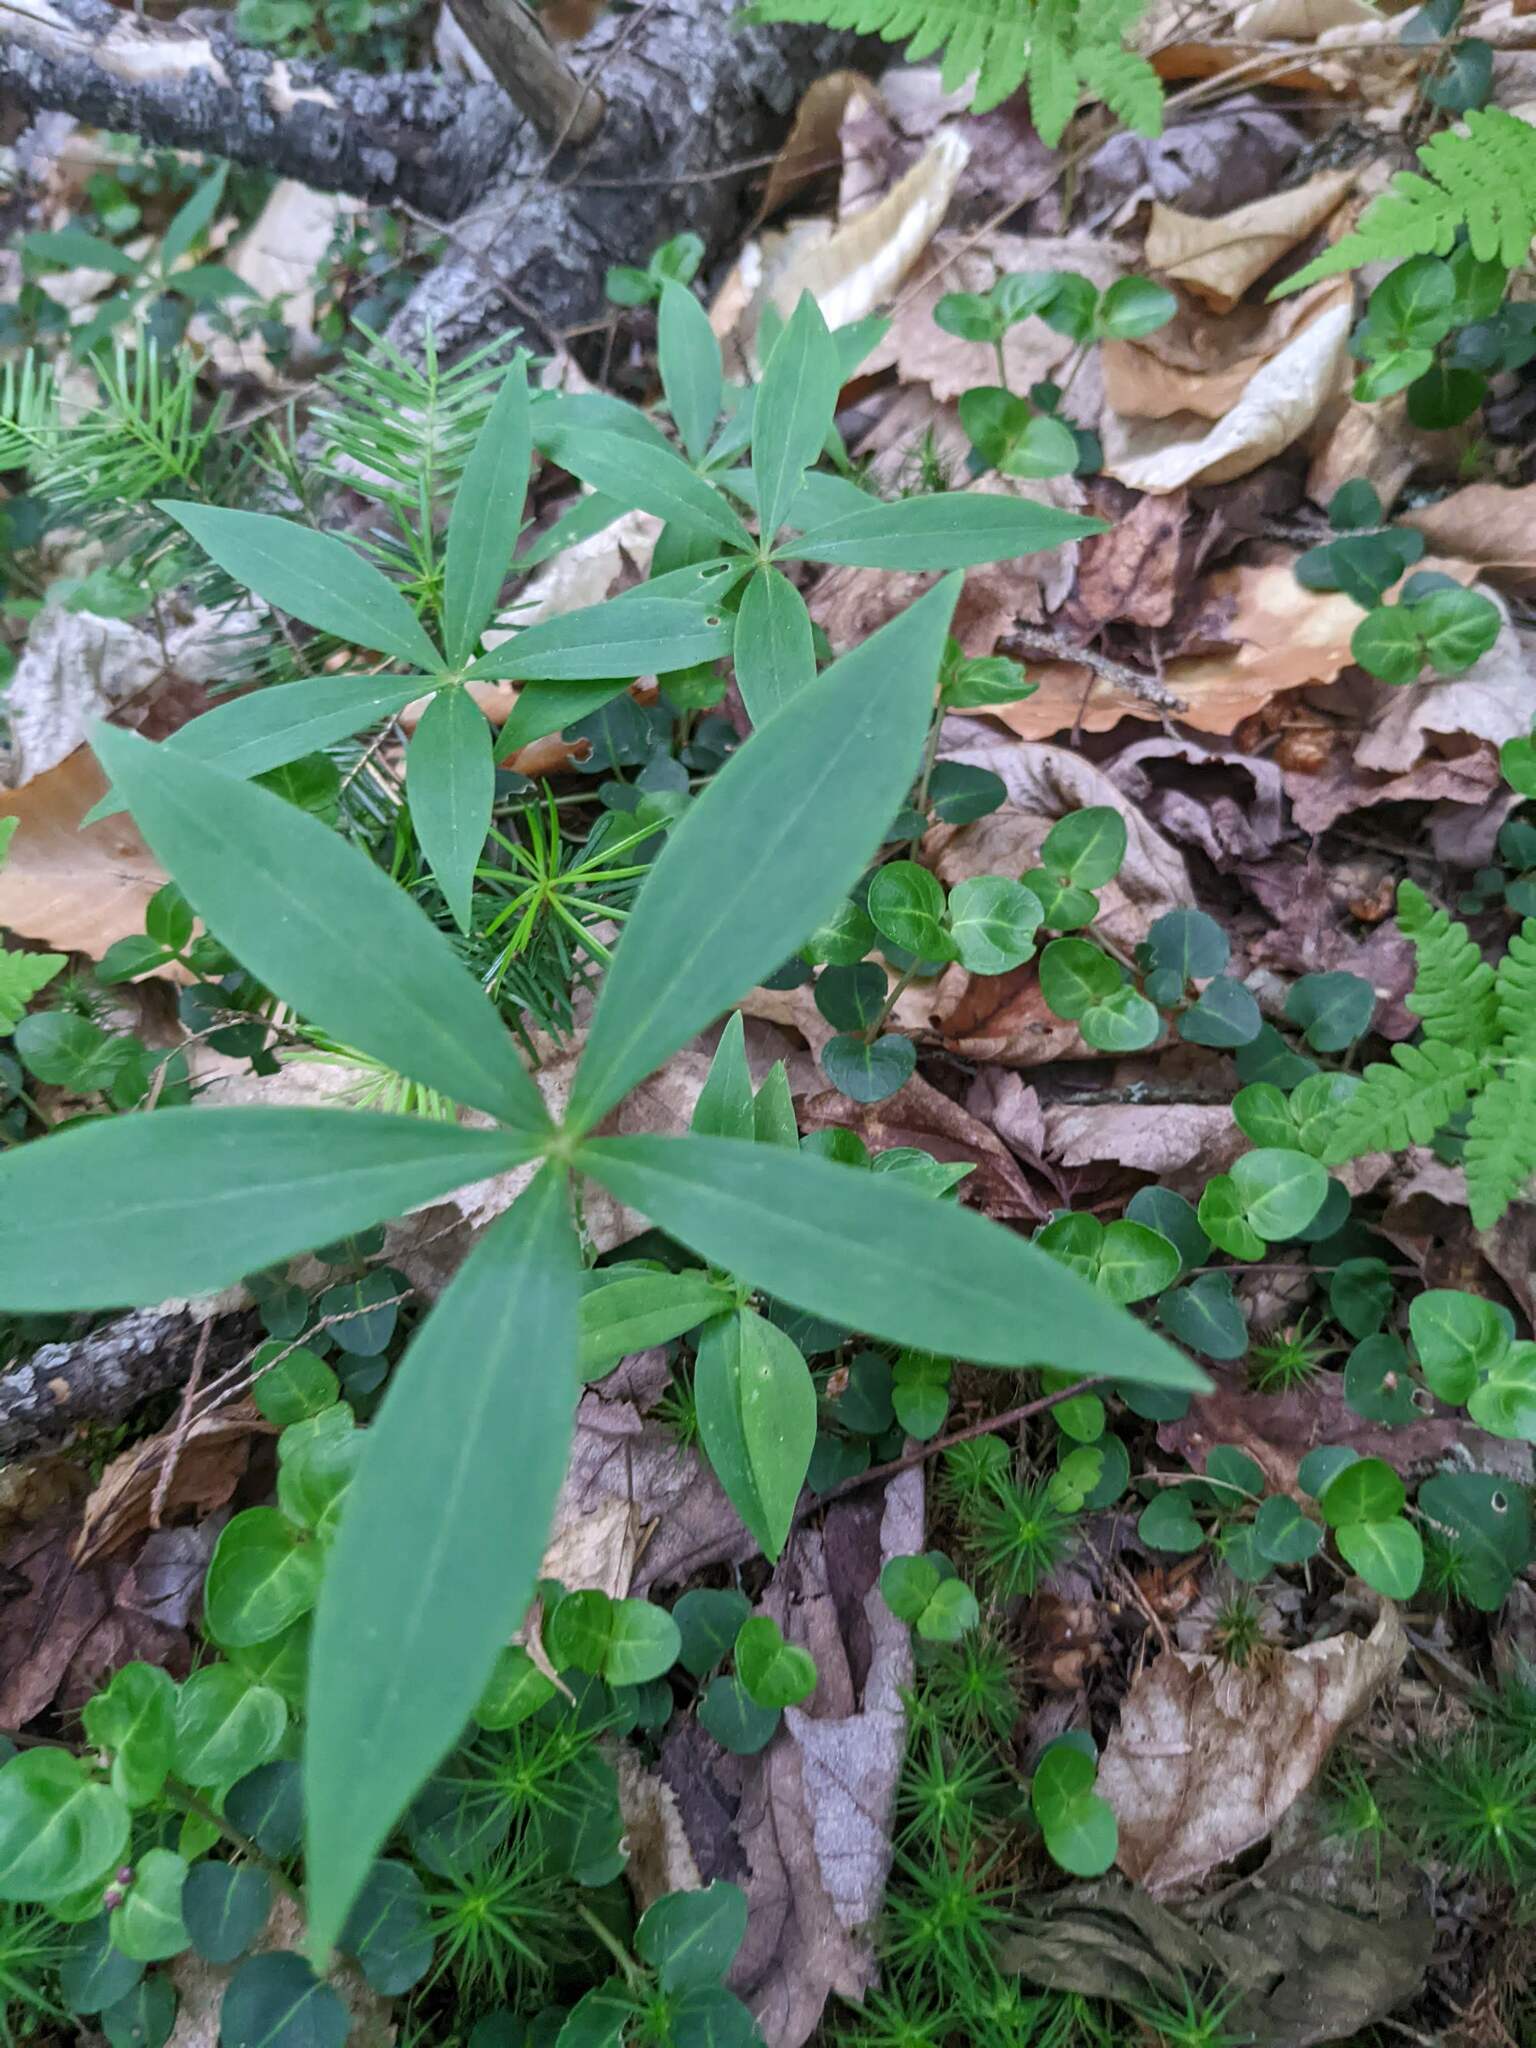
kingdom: Plantae
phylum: Tracheophyta
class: Liliopsida
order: Liliales
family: Liliaceae
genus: Medeola
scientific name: Medeola virginiana
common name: Indian cucumber-root
